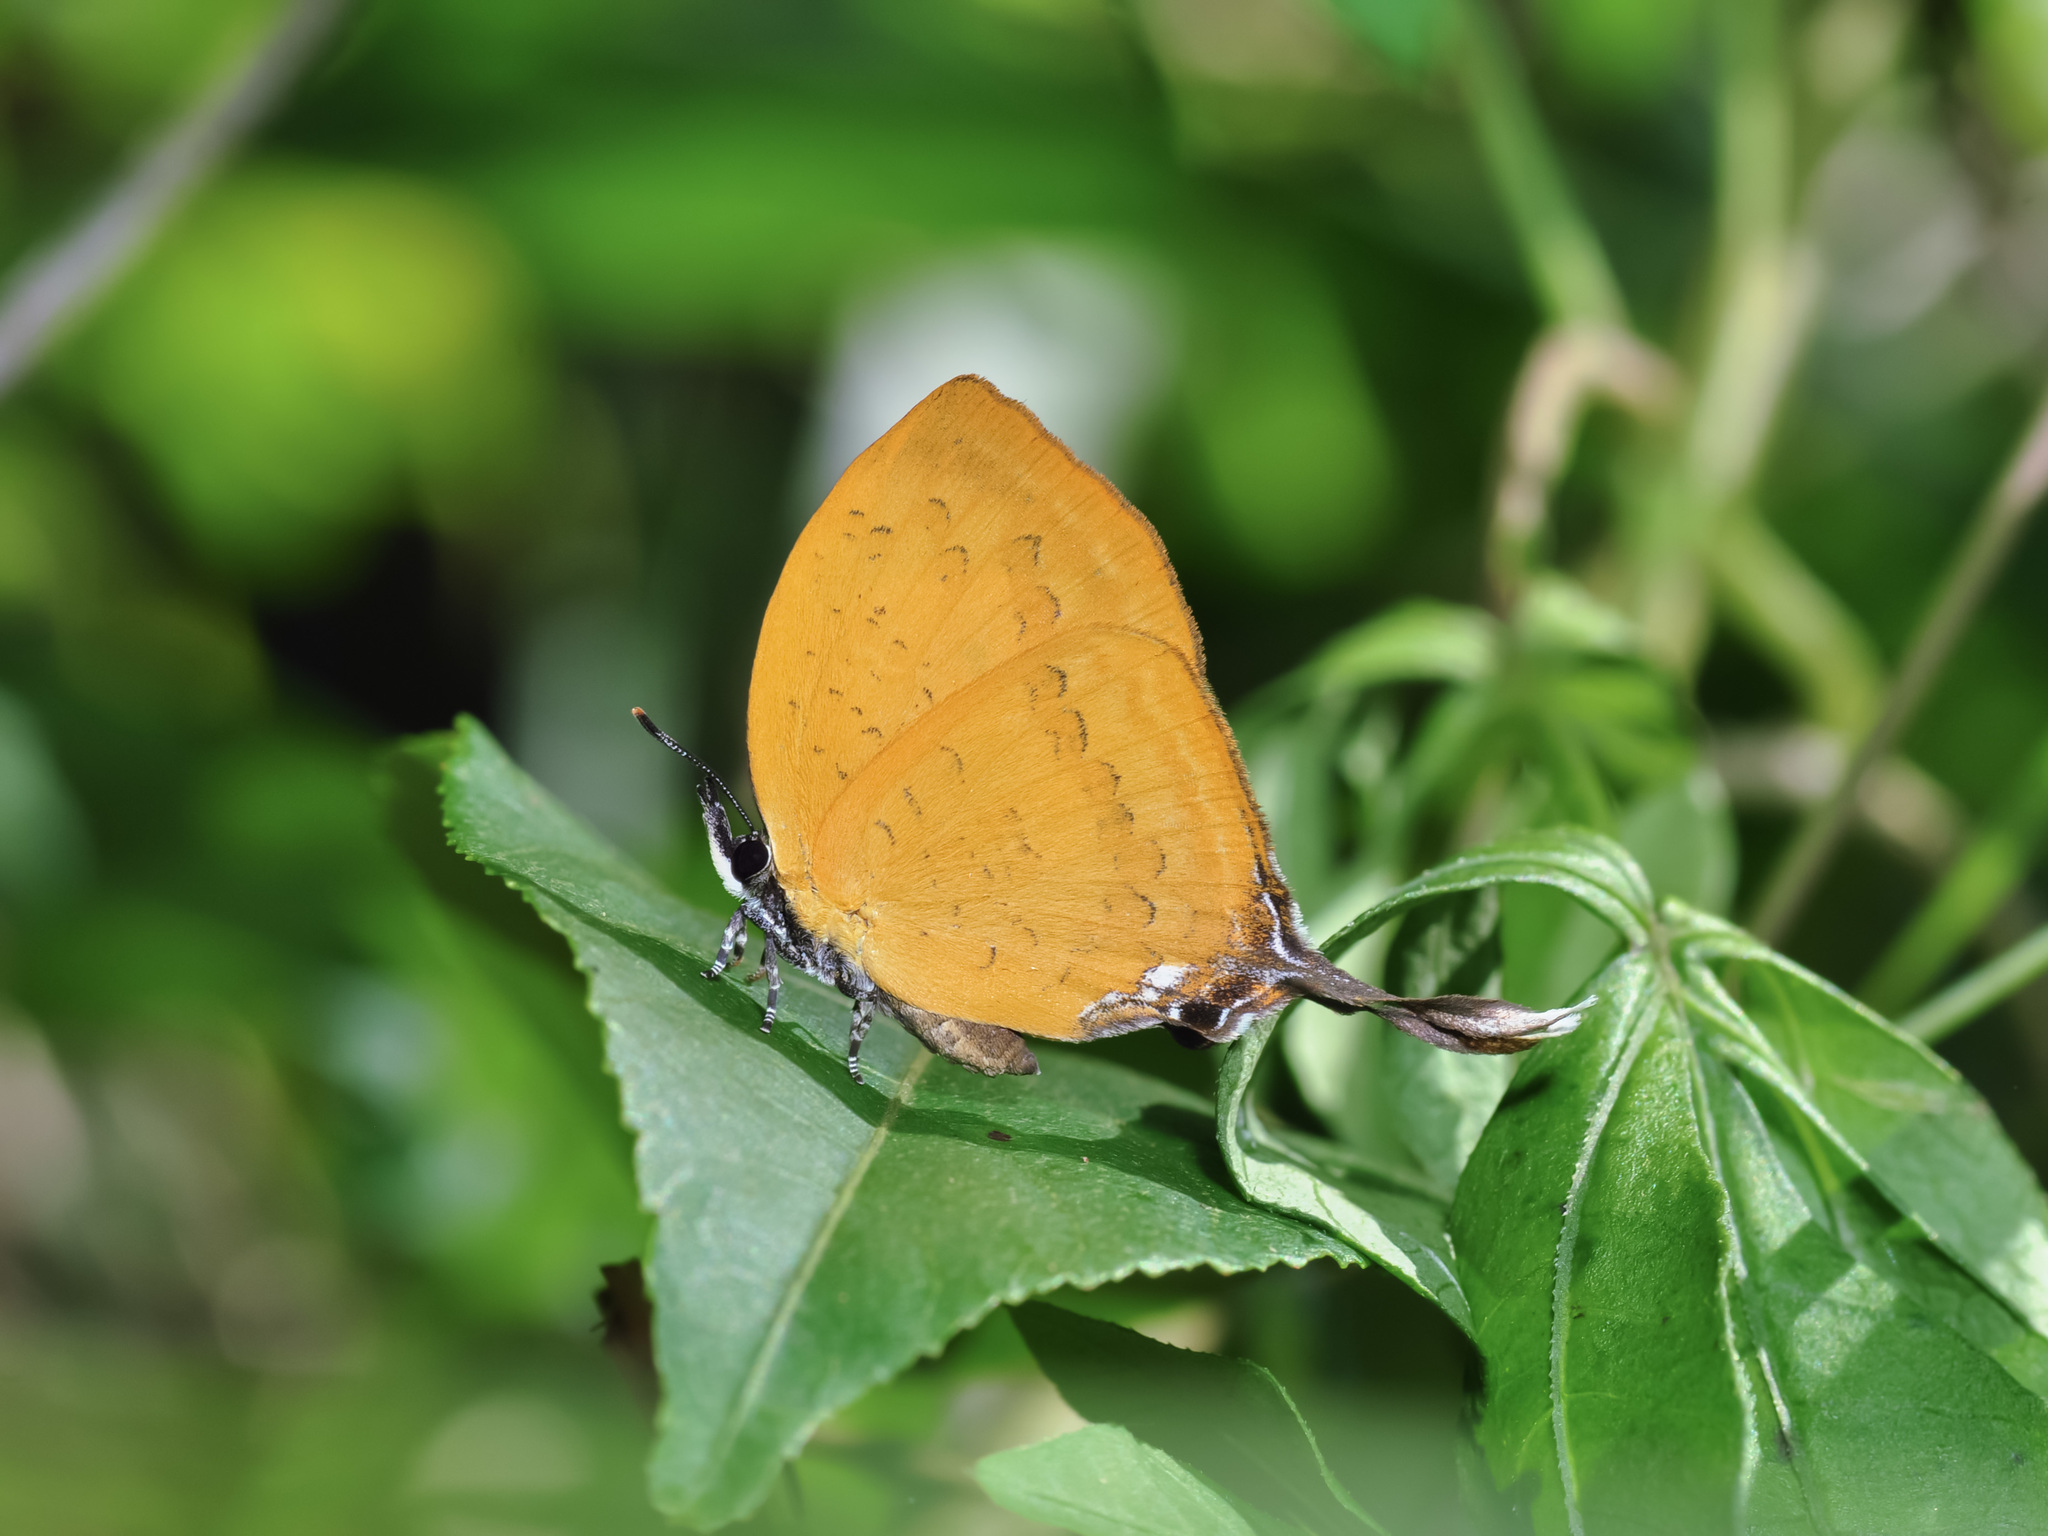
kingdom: Animalia
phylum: Arthropoda
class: Insecta
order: Lepidoptera
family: Lycaenidae
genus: Yasoda
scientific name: Yasoda pita
